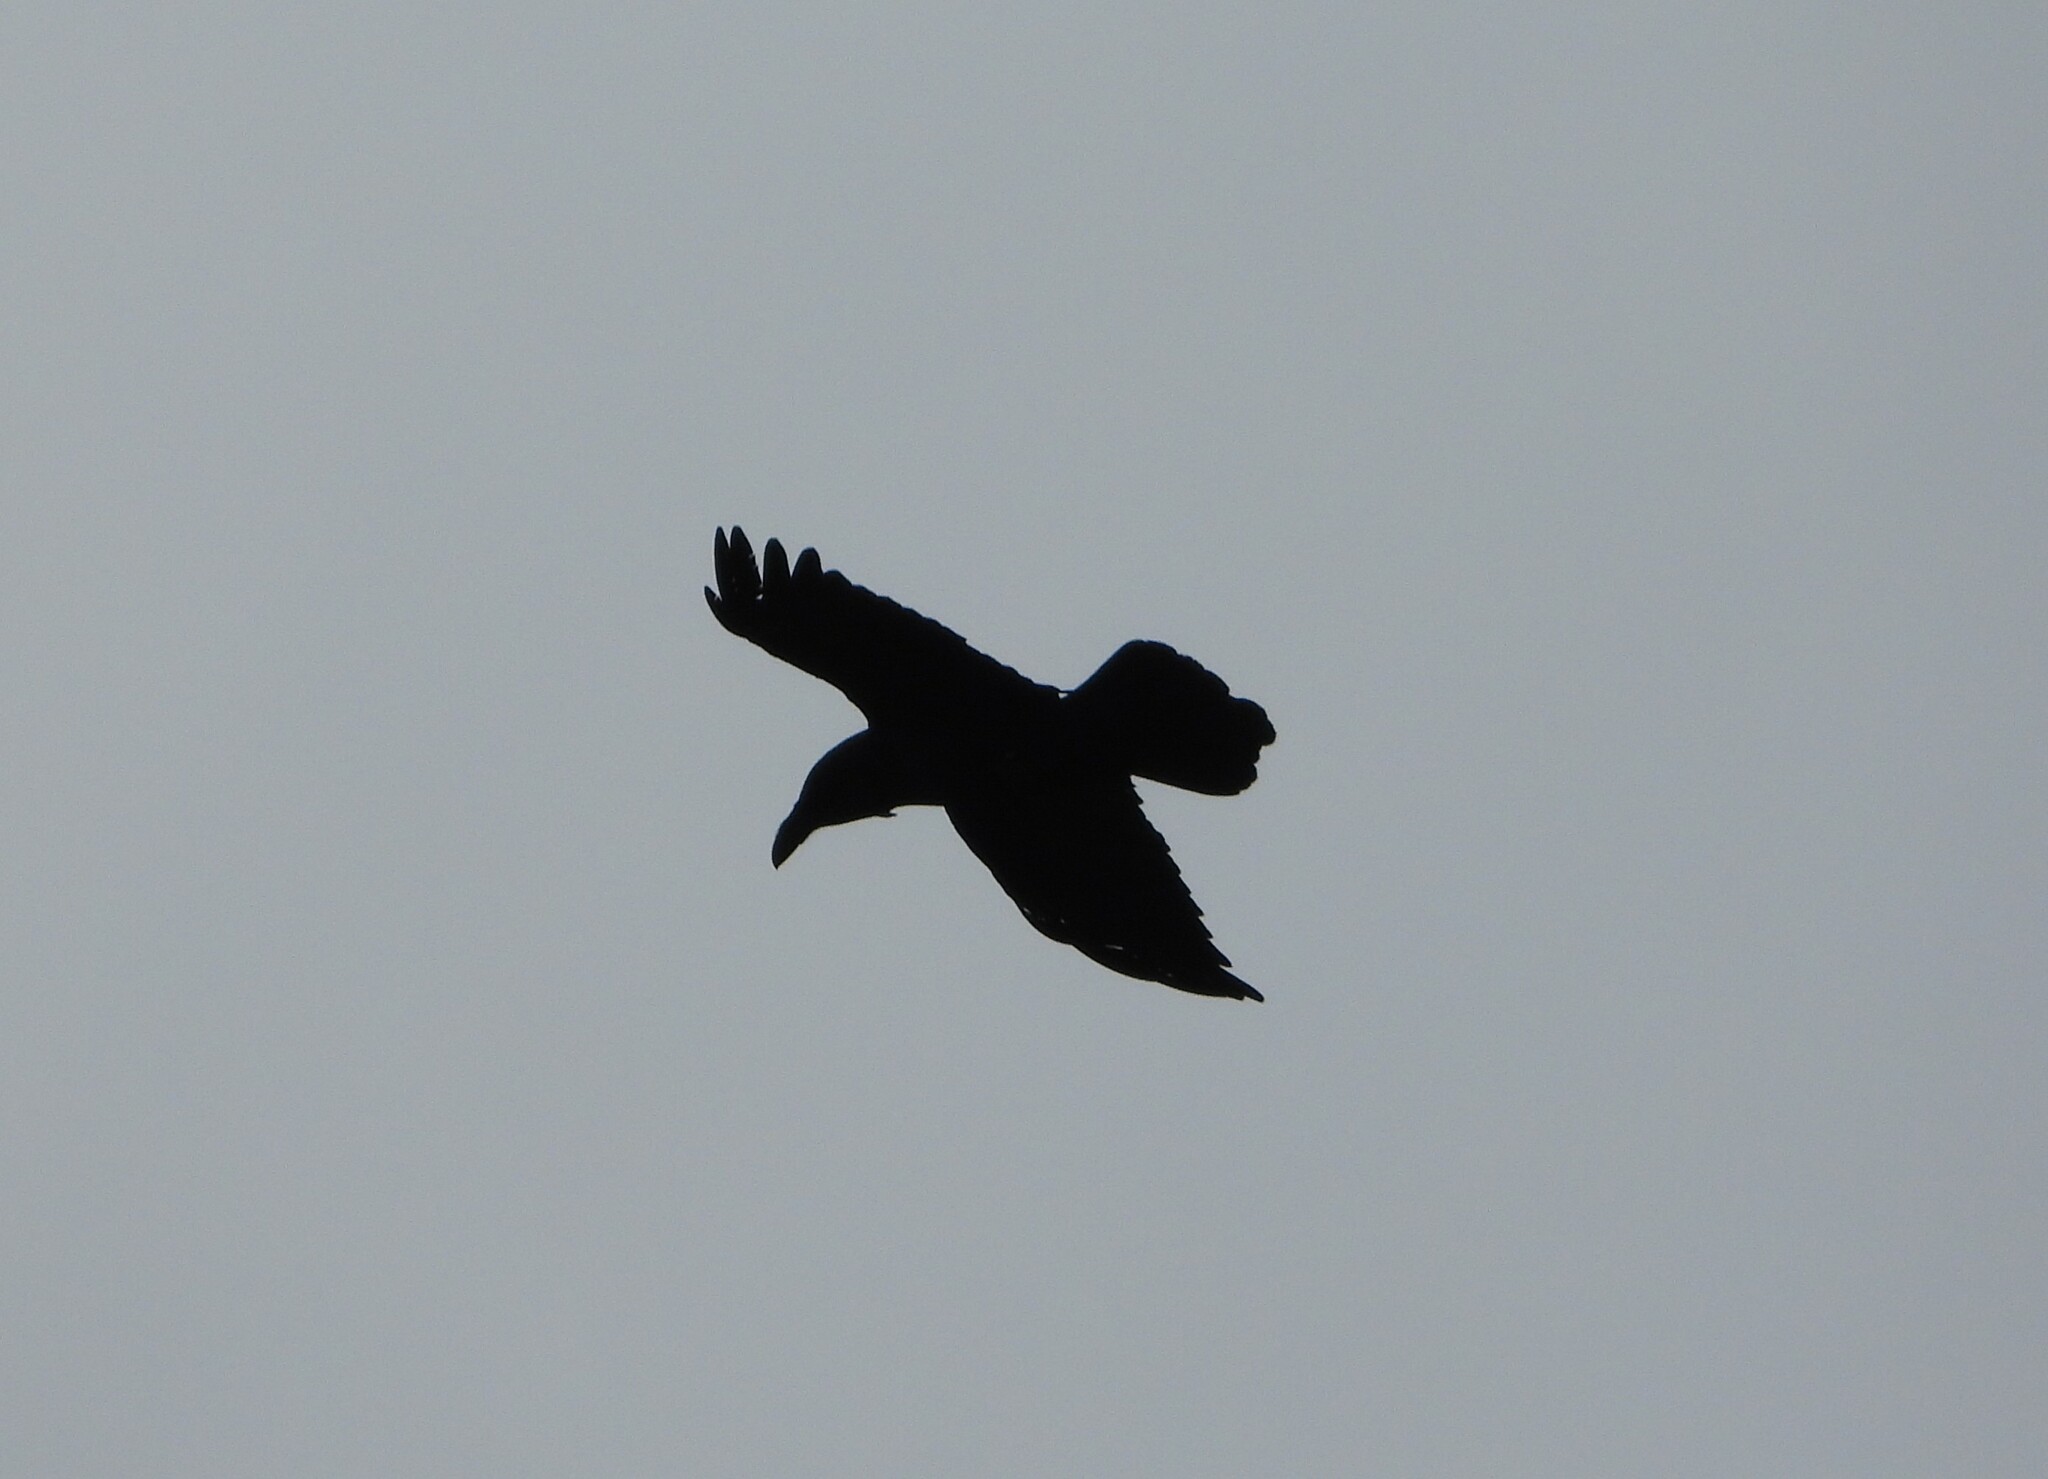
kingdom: Animalia
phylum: Chordata
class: Aves
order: Passeriformes
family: Corvidae
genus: Corvus
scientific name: Corvus corax
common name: Common raven
